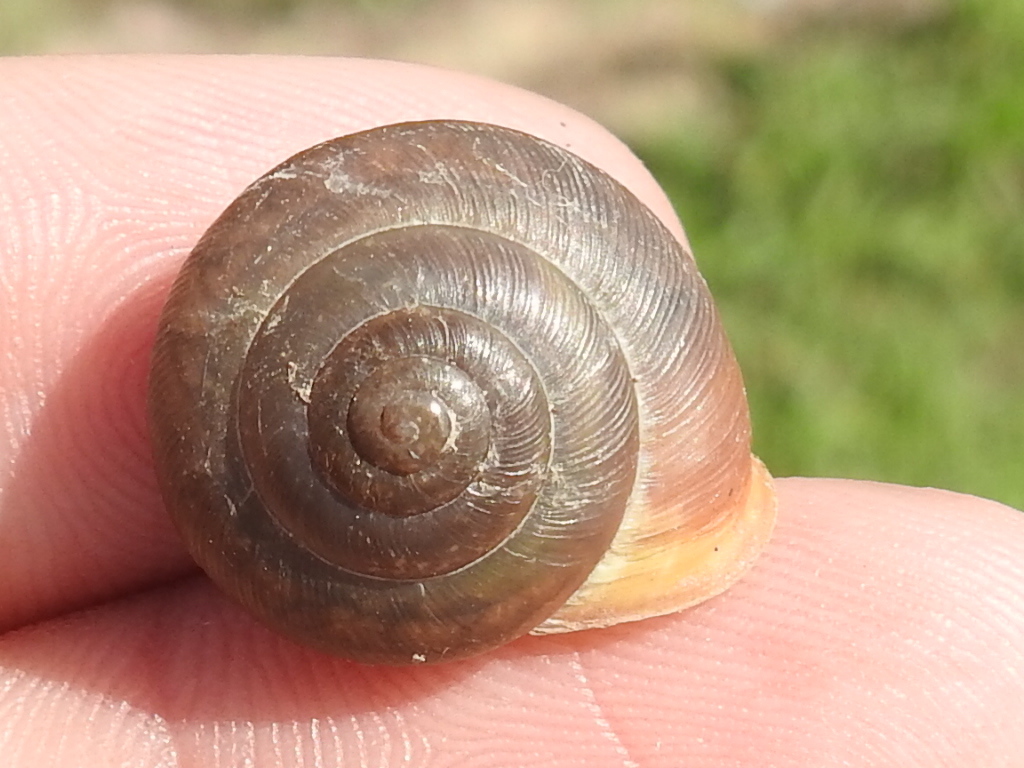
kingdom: Animalia
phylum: Mollusca
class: Gastropoda
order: Stylommatophora
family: Polygyridae
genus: Patera
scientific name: Patera roemeri
